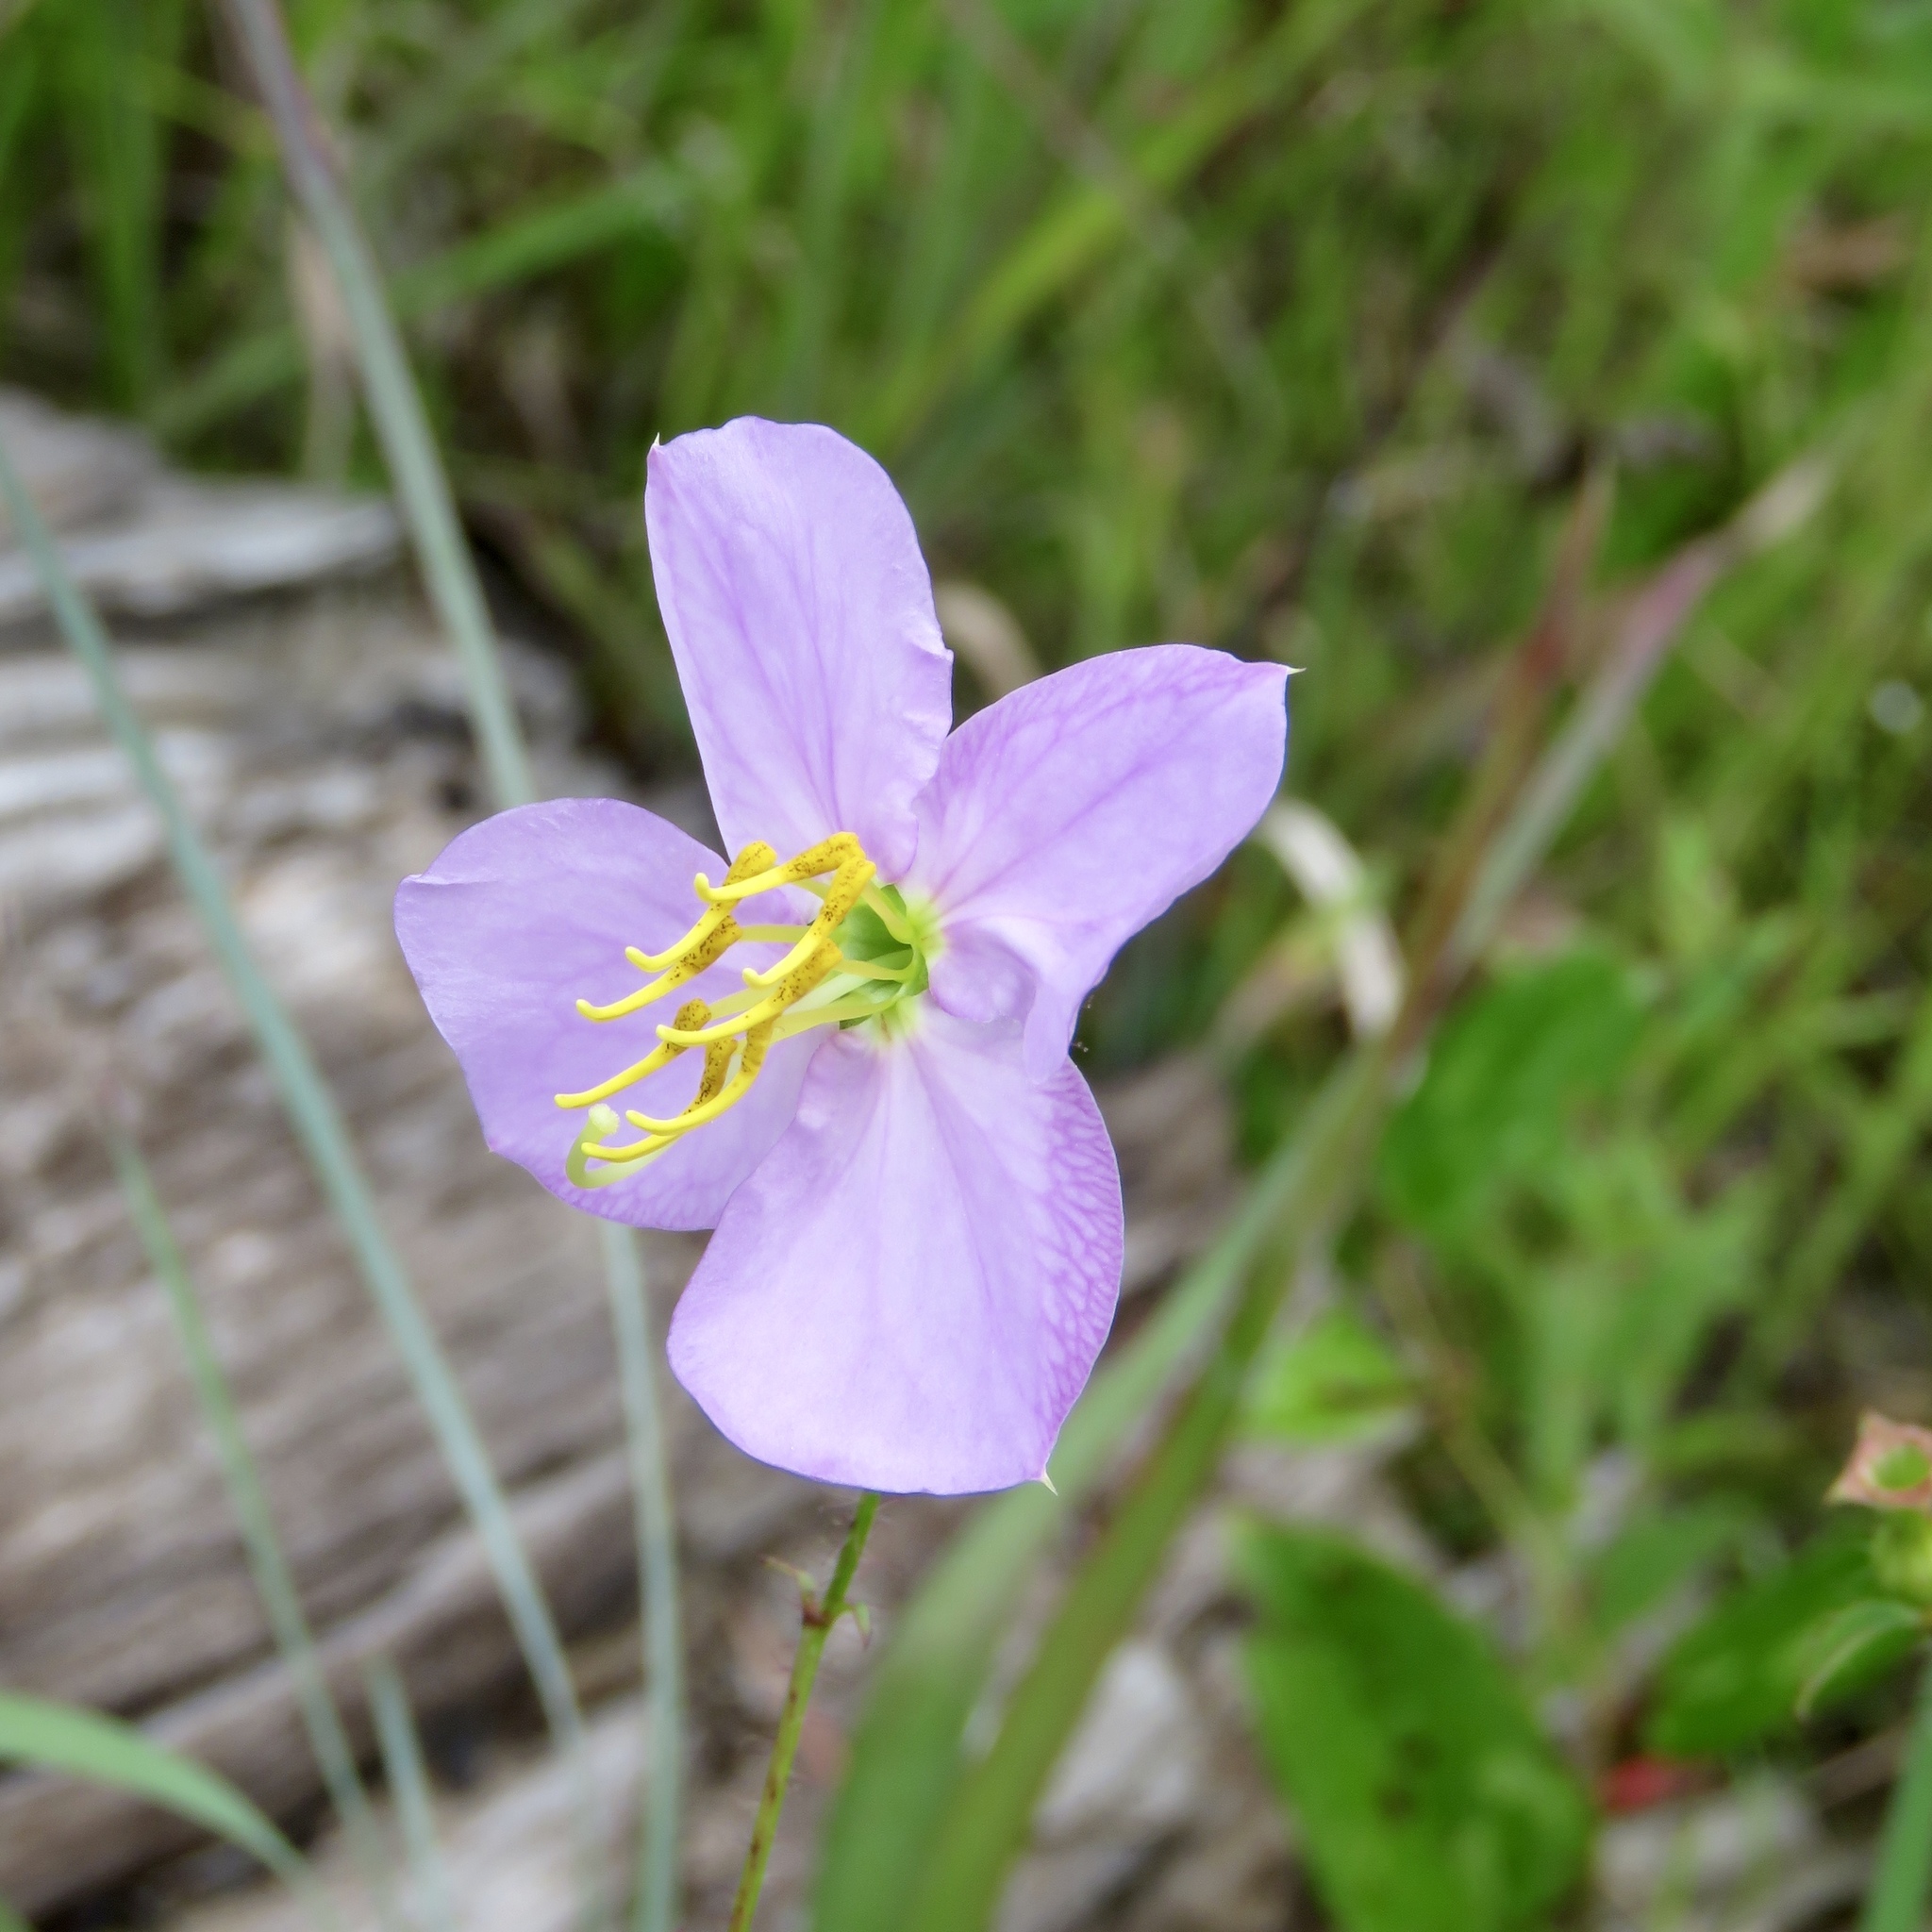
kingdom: Plantae
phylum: Tracheophyta
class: Magnoliopsida
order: Myrtales
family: Melastomataceae
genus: Rhexia
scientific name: Rhexia mariana
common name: Dull meadow-pitcher
